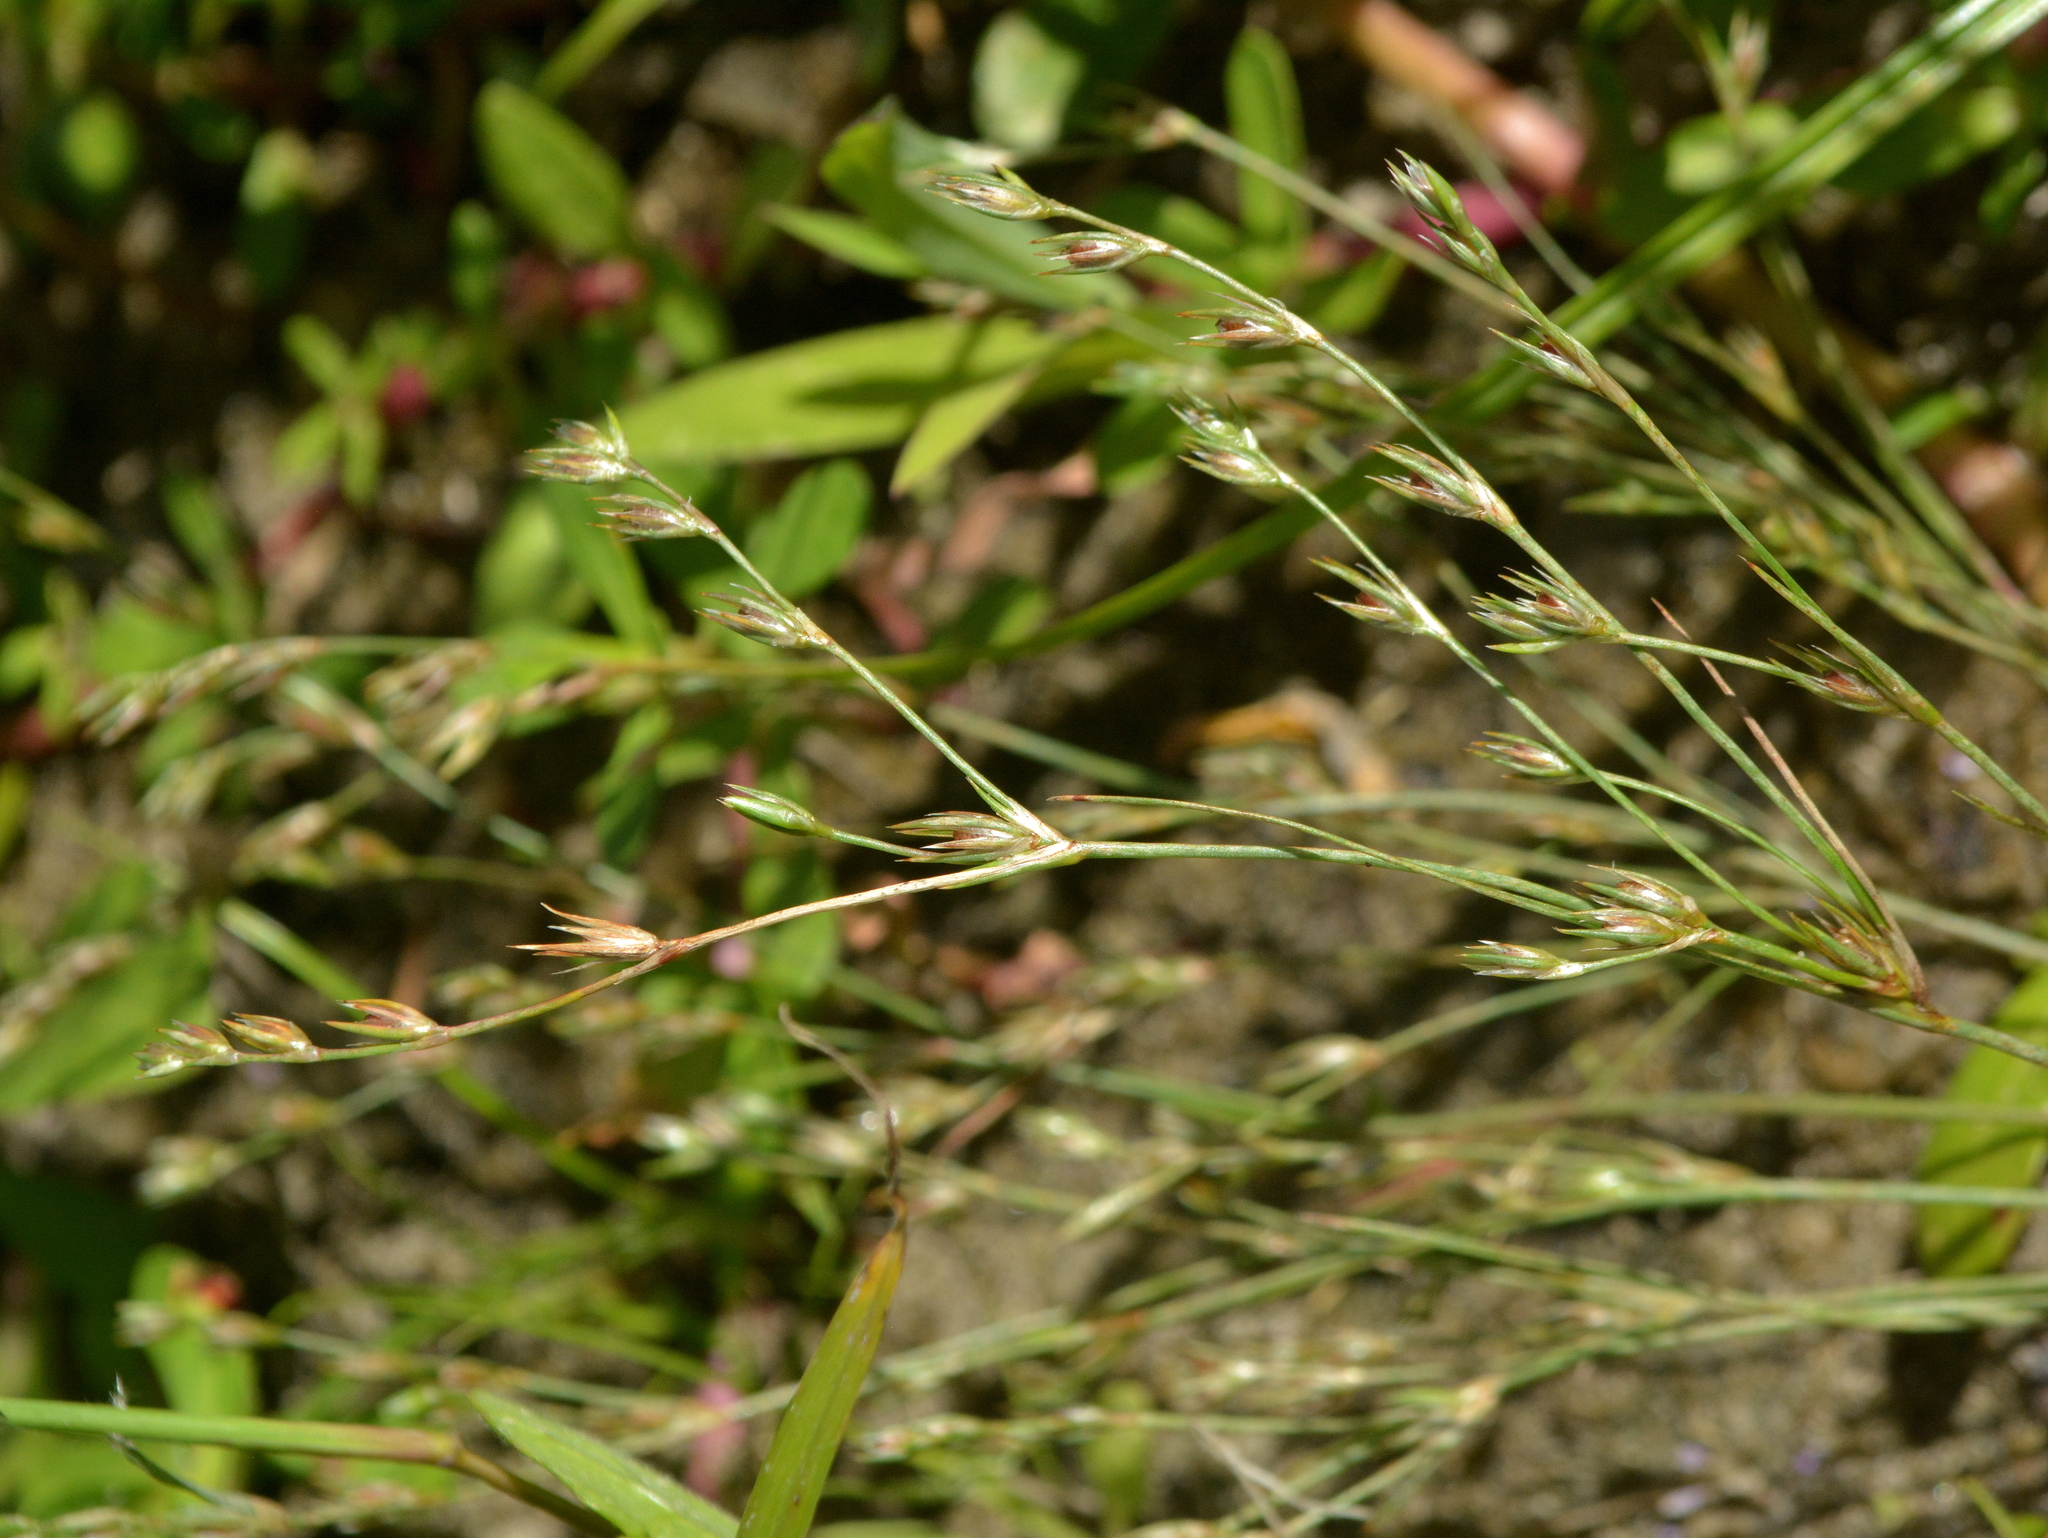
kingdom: Plantae
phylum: Tracheophyta
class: Liliopsida
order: Poales
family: Juncaceae
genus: Juncus
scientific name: Juncus bufonius
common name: Toad rush
